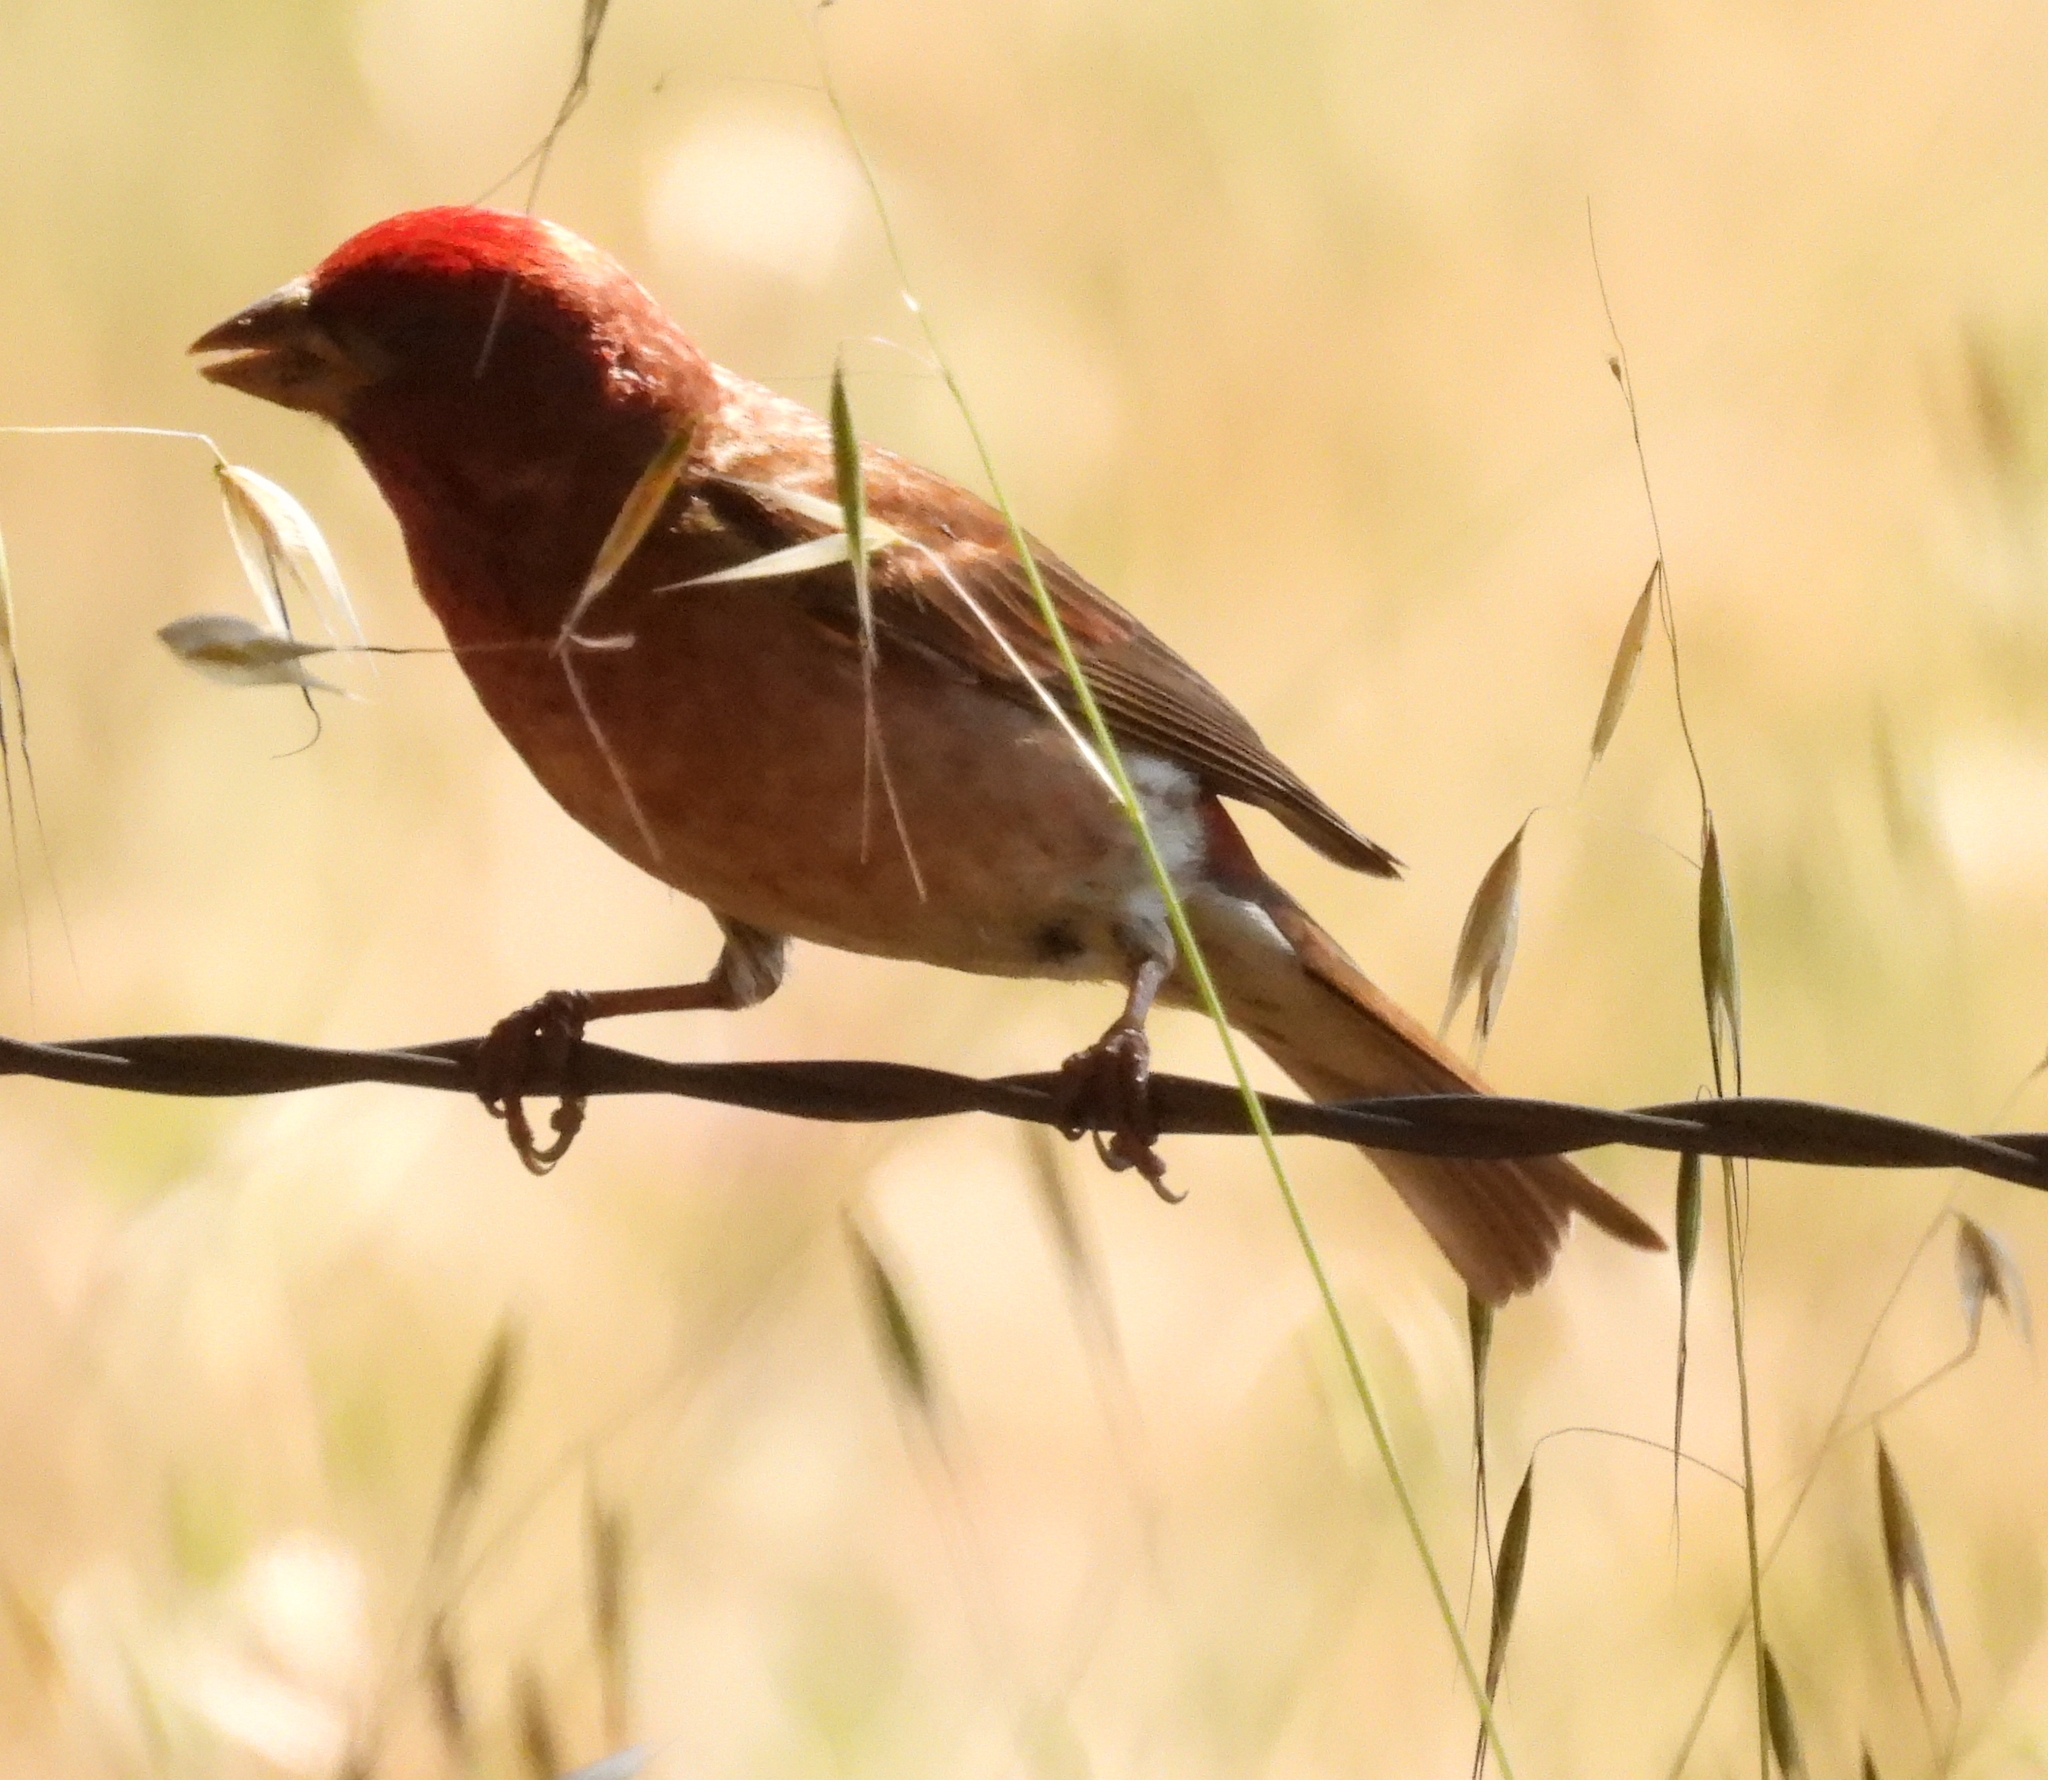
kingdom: Animalia
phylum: Chordata
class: Aves
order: Passeriformes
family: Fringillidae
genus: Haemorhous
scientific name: Haemorhous purpureus
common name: Purple finch
